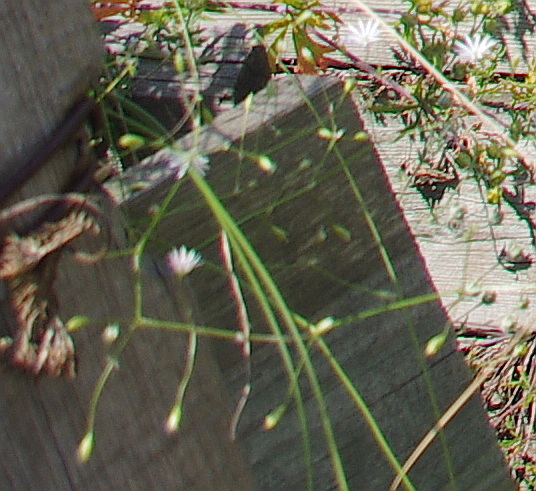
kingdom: Plantae
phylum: Tracheophyta
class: Magnoliopsida
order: Caryophyllales
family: Caryophyllaceae
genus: Stellaria
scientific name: Stellaria graminea
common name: Grass-like starwort
